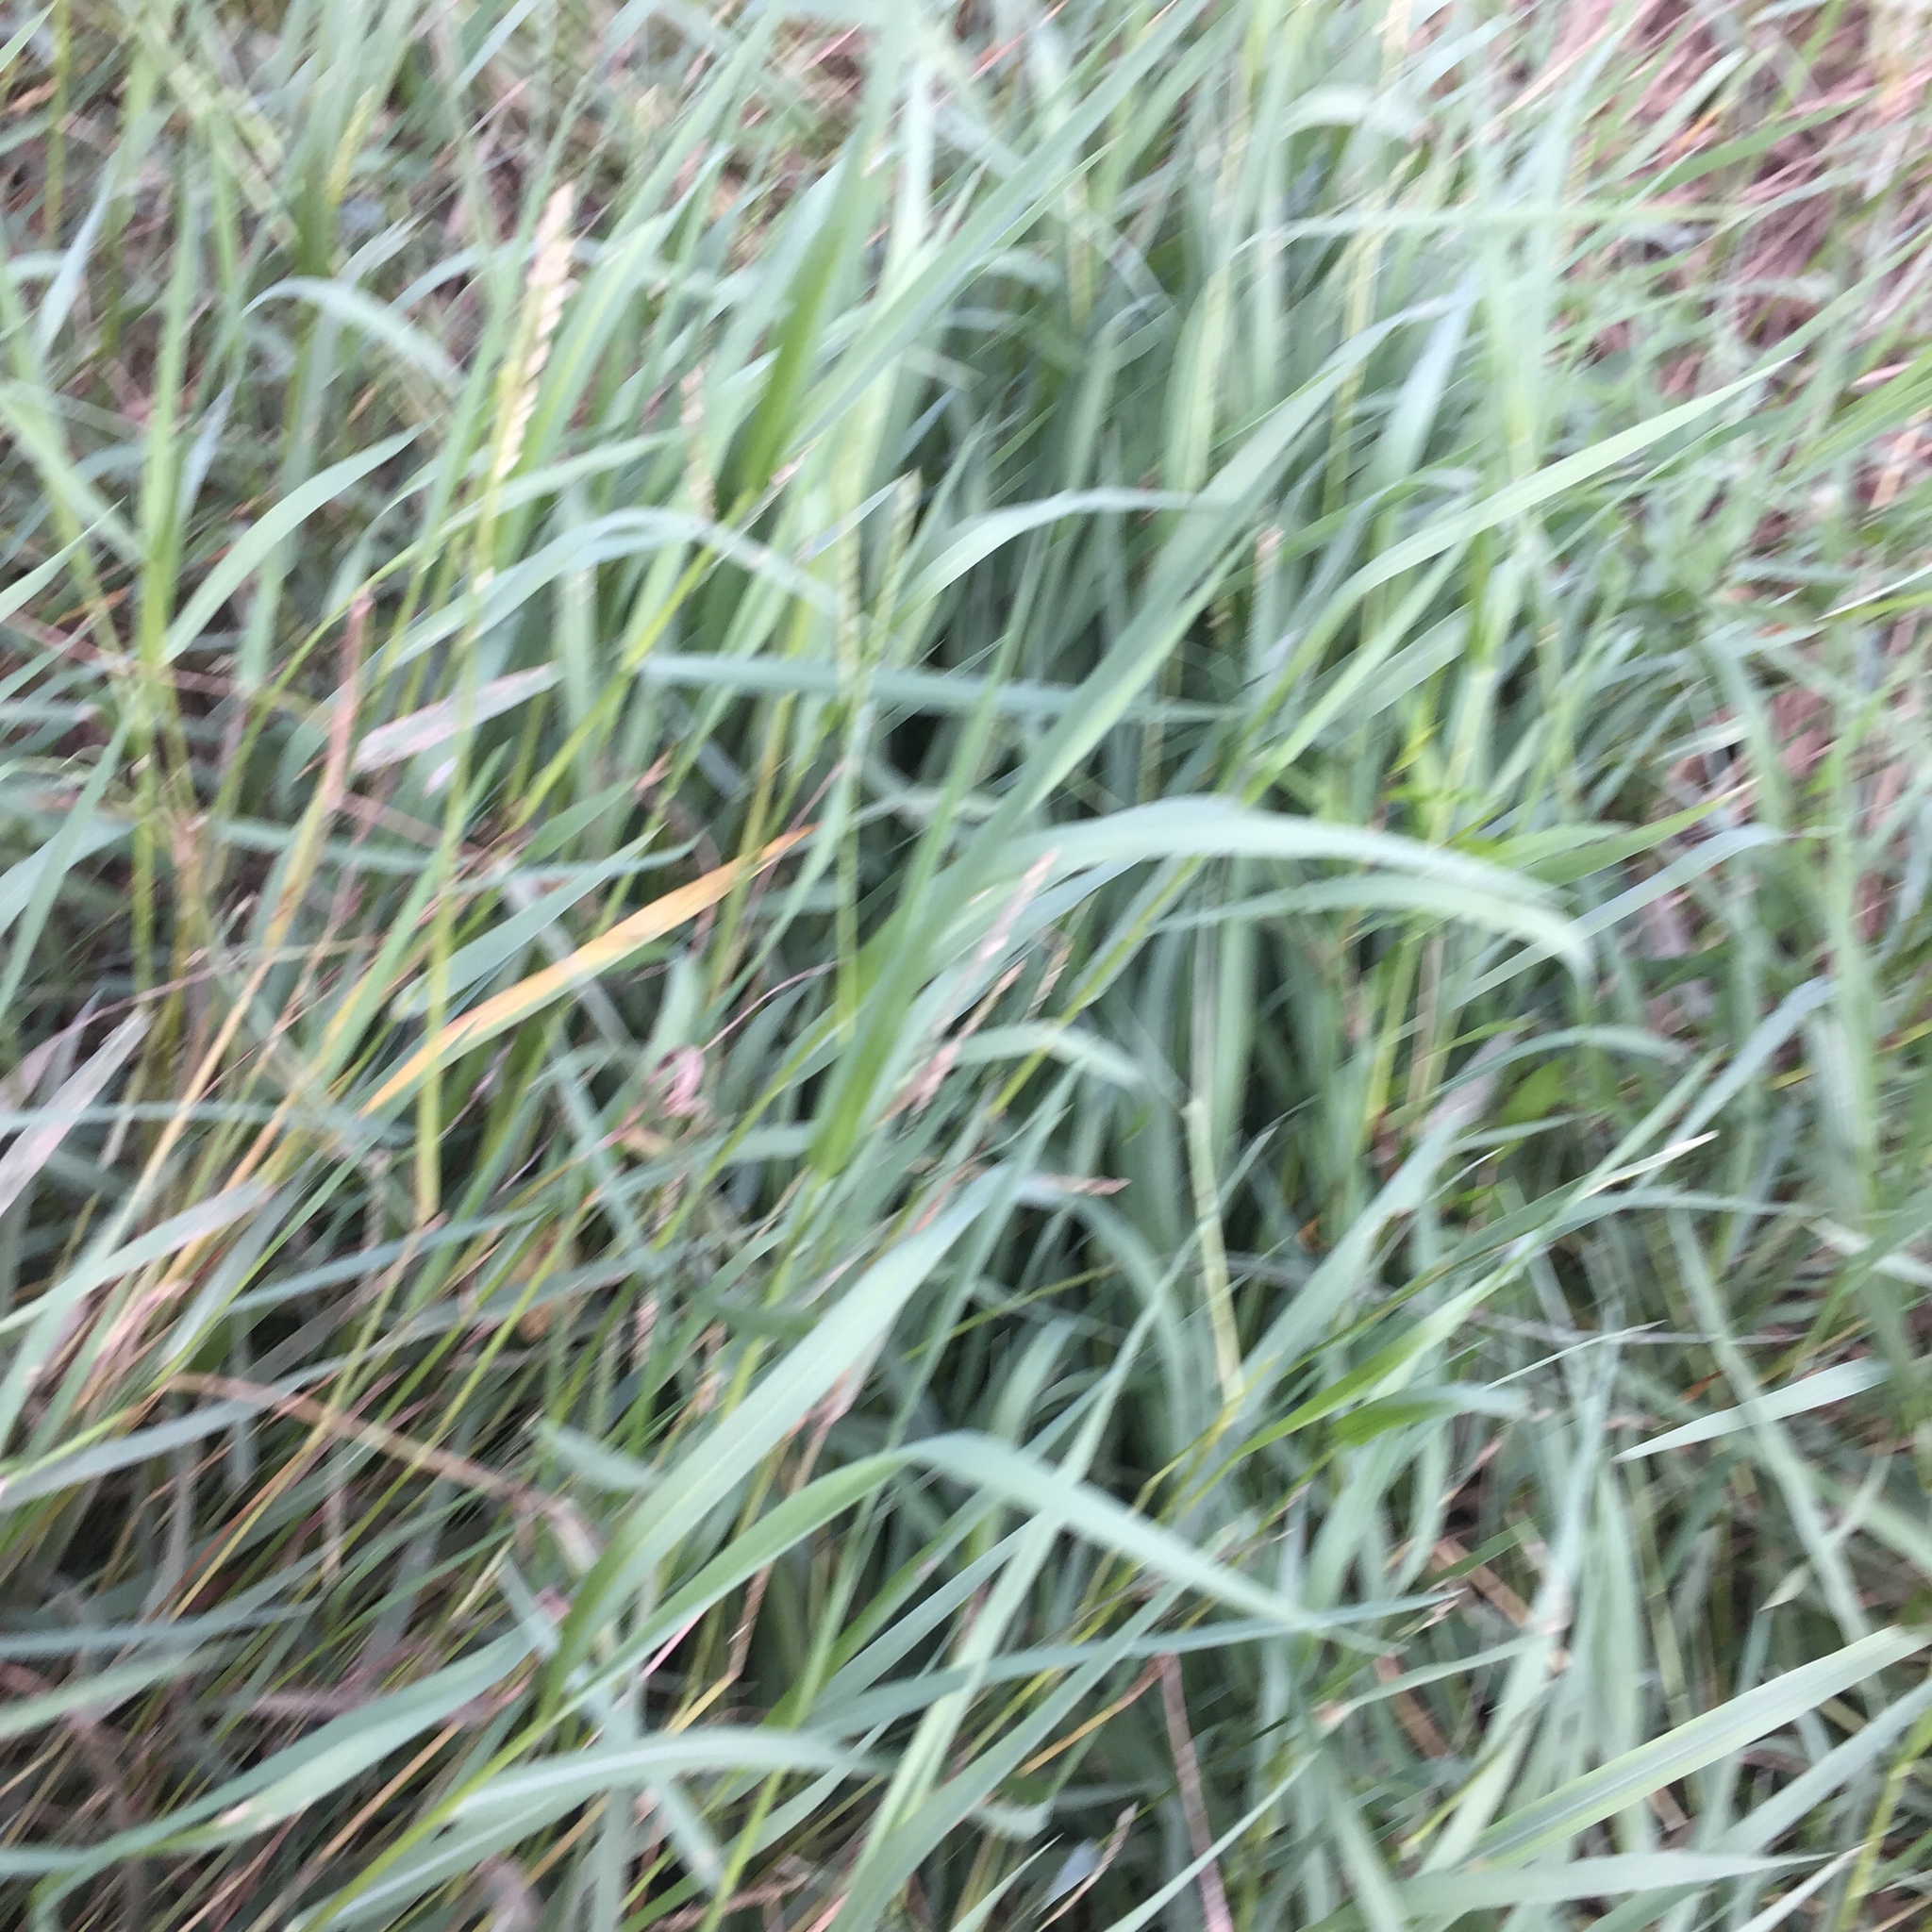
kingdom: Plantae
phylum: Tracheophyta
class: Liliopsida
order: Poales
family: Poaceae
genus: Urochloa
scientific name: Urochloa platyphylla
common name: White para grass
